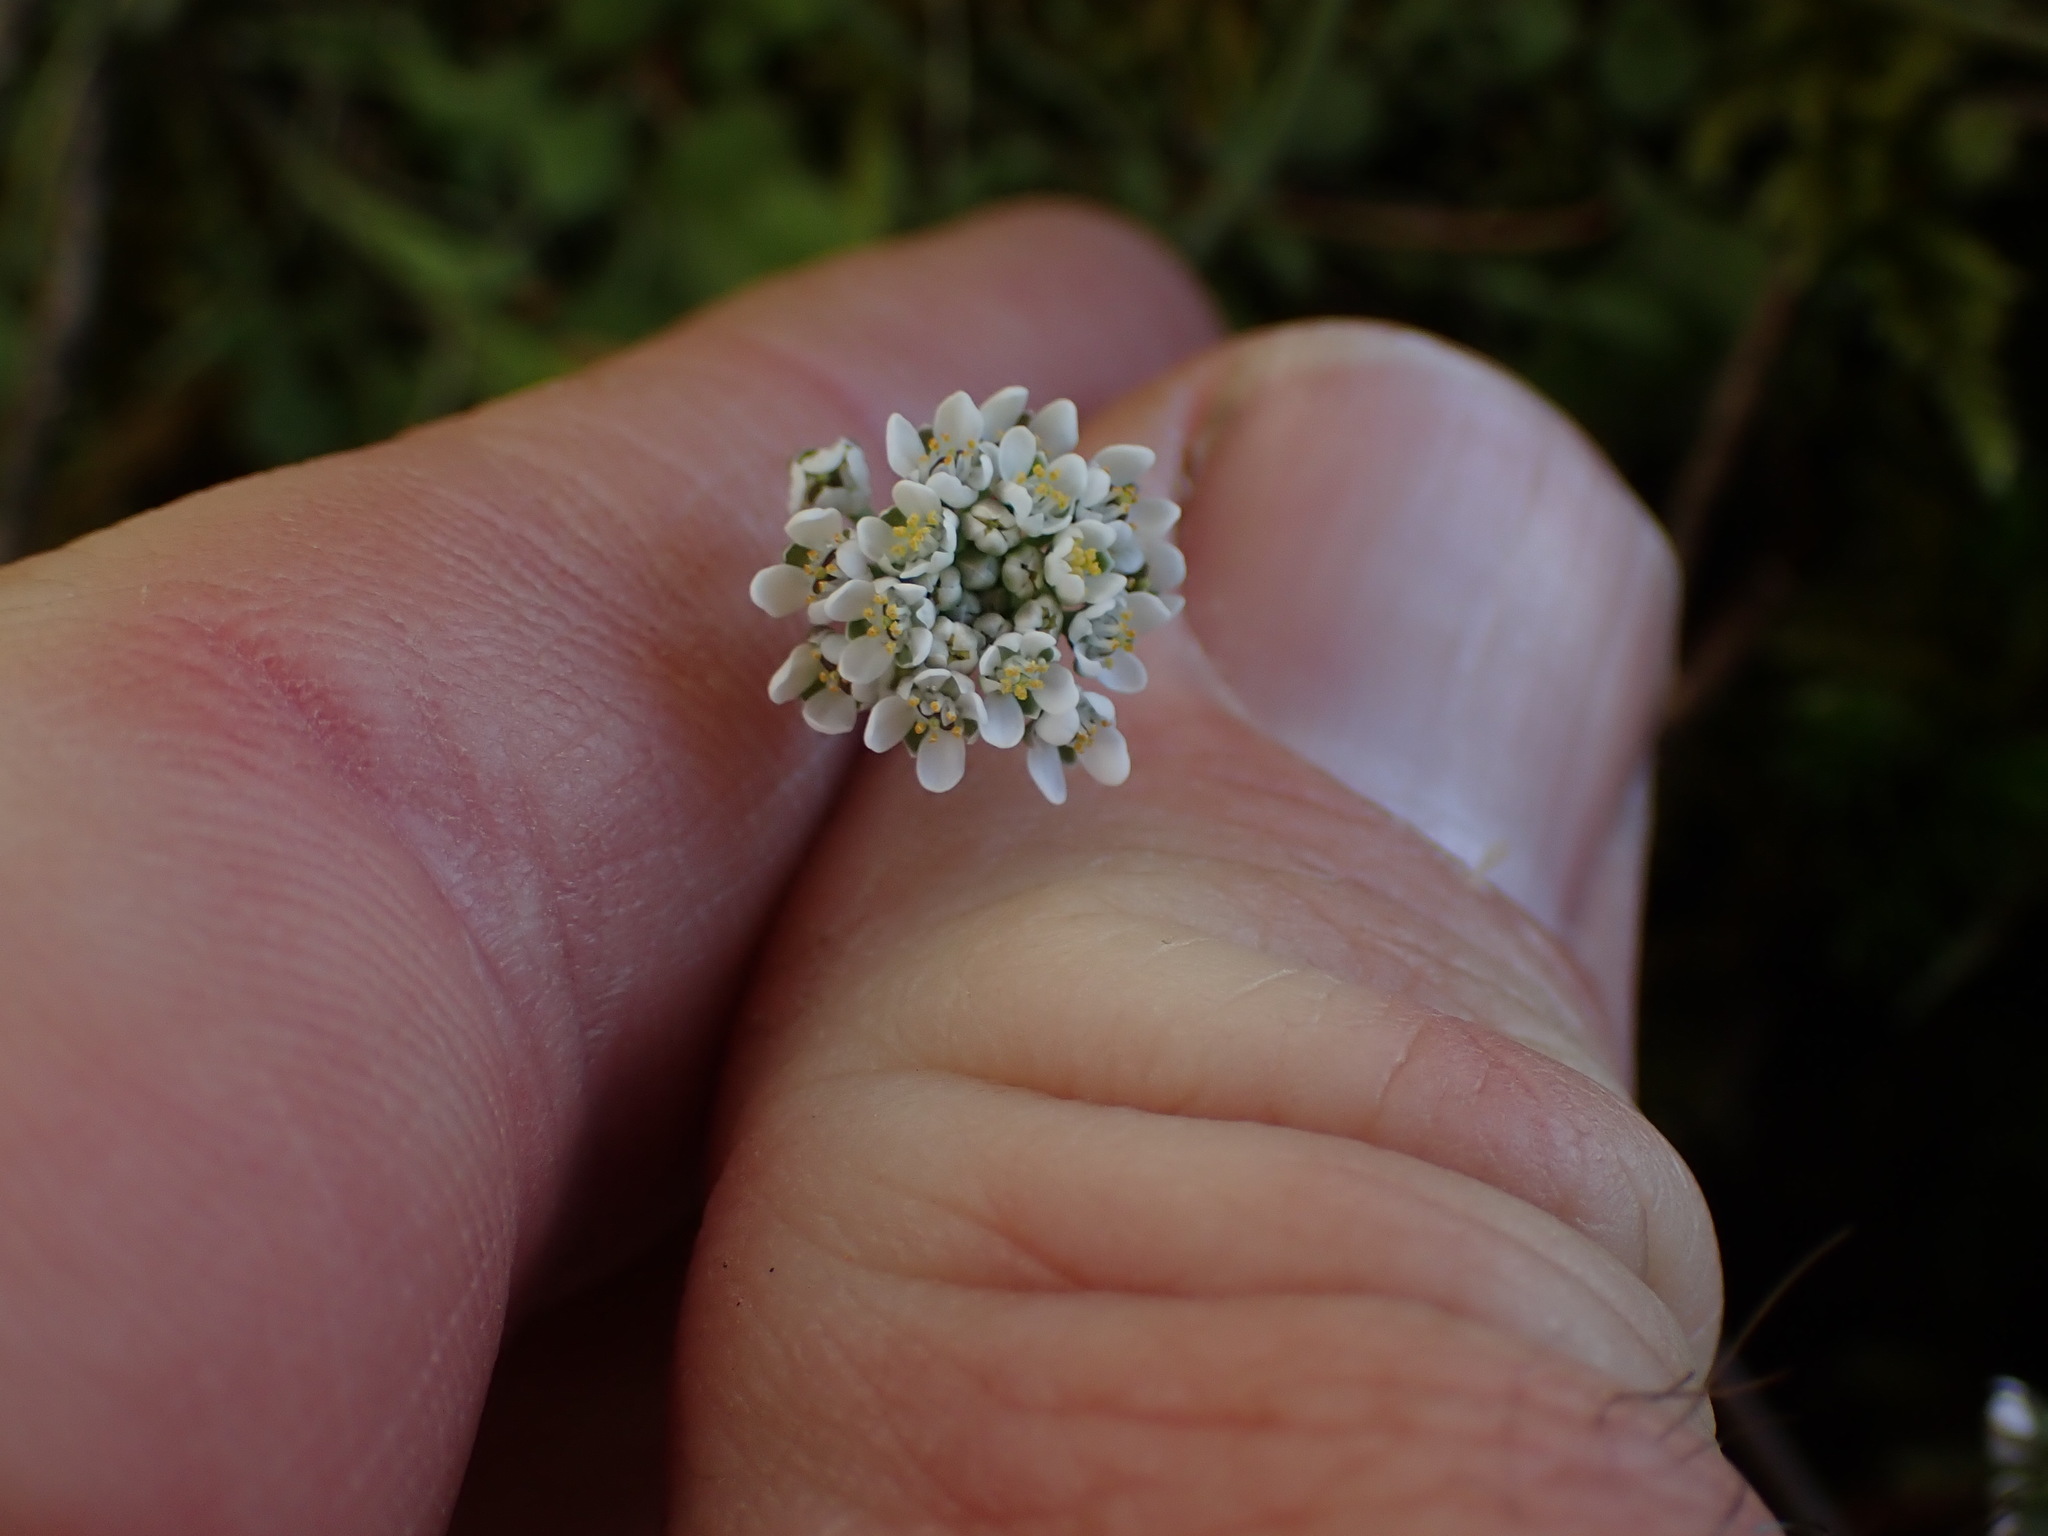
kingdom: Plantae
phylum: Tracheophyta
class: Magnoliopsida
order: Brassicales
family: Brassicaceae
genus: Teesdalia
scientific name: Teesdalia nudicaulis
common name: Shepherd's cress
